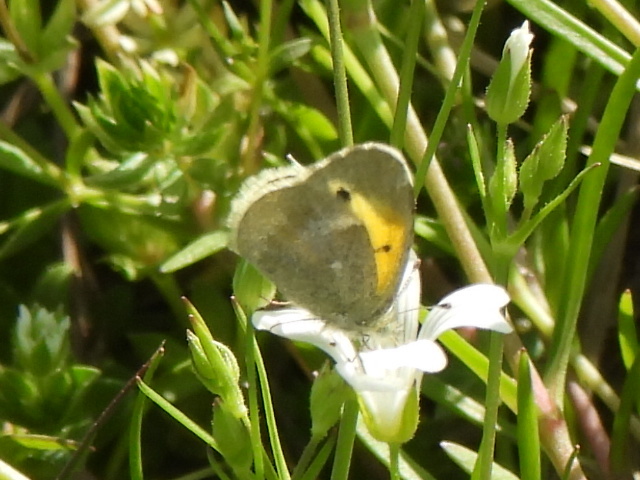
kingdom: Animalia
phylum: Arthropoda
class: Insecta
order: Lepidoptera
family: Pieridae
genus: Nathalis
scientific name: Nathalis iole
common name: Dainty sulphur
